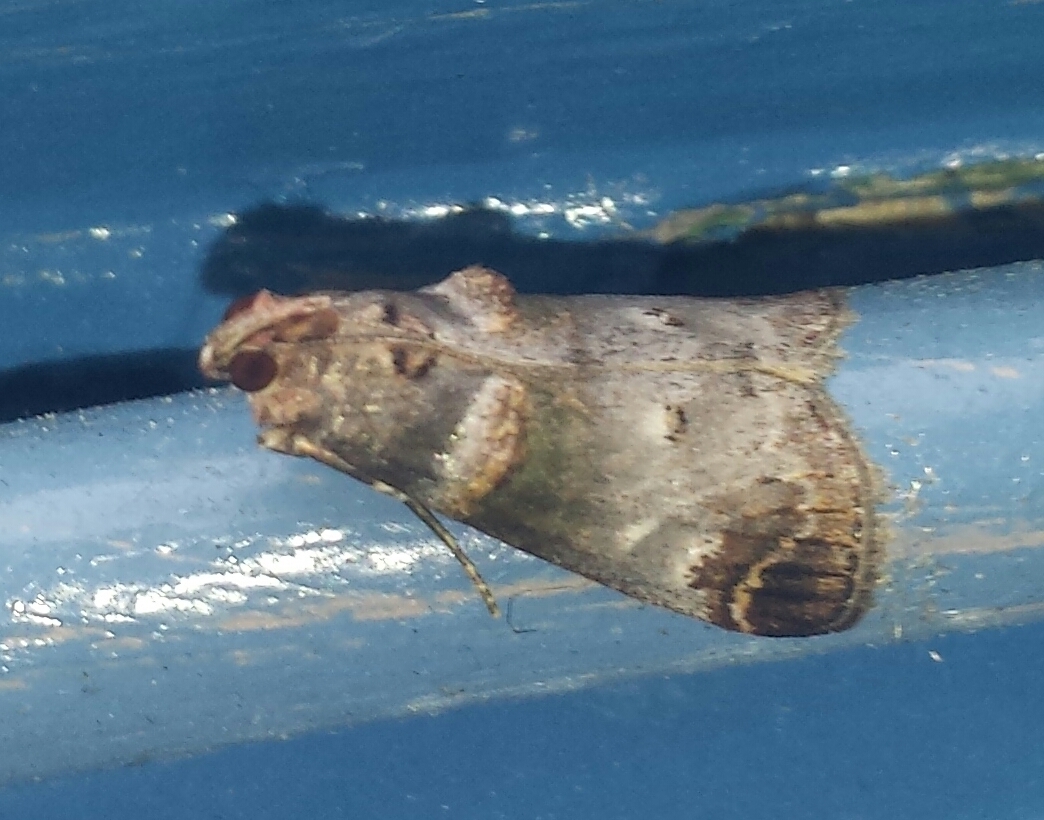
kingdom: Animalia
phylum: Arthropoda
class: Insecta
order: Lepidoptera
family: Pyralidae
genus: Oneida
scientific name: Oneida lunulalis
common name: Orange-tufted oneida moth
